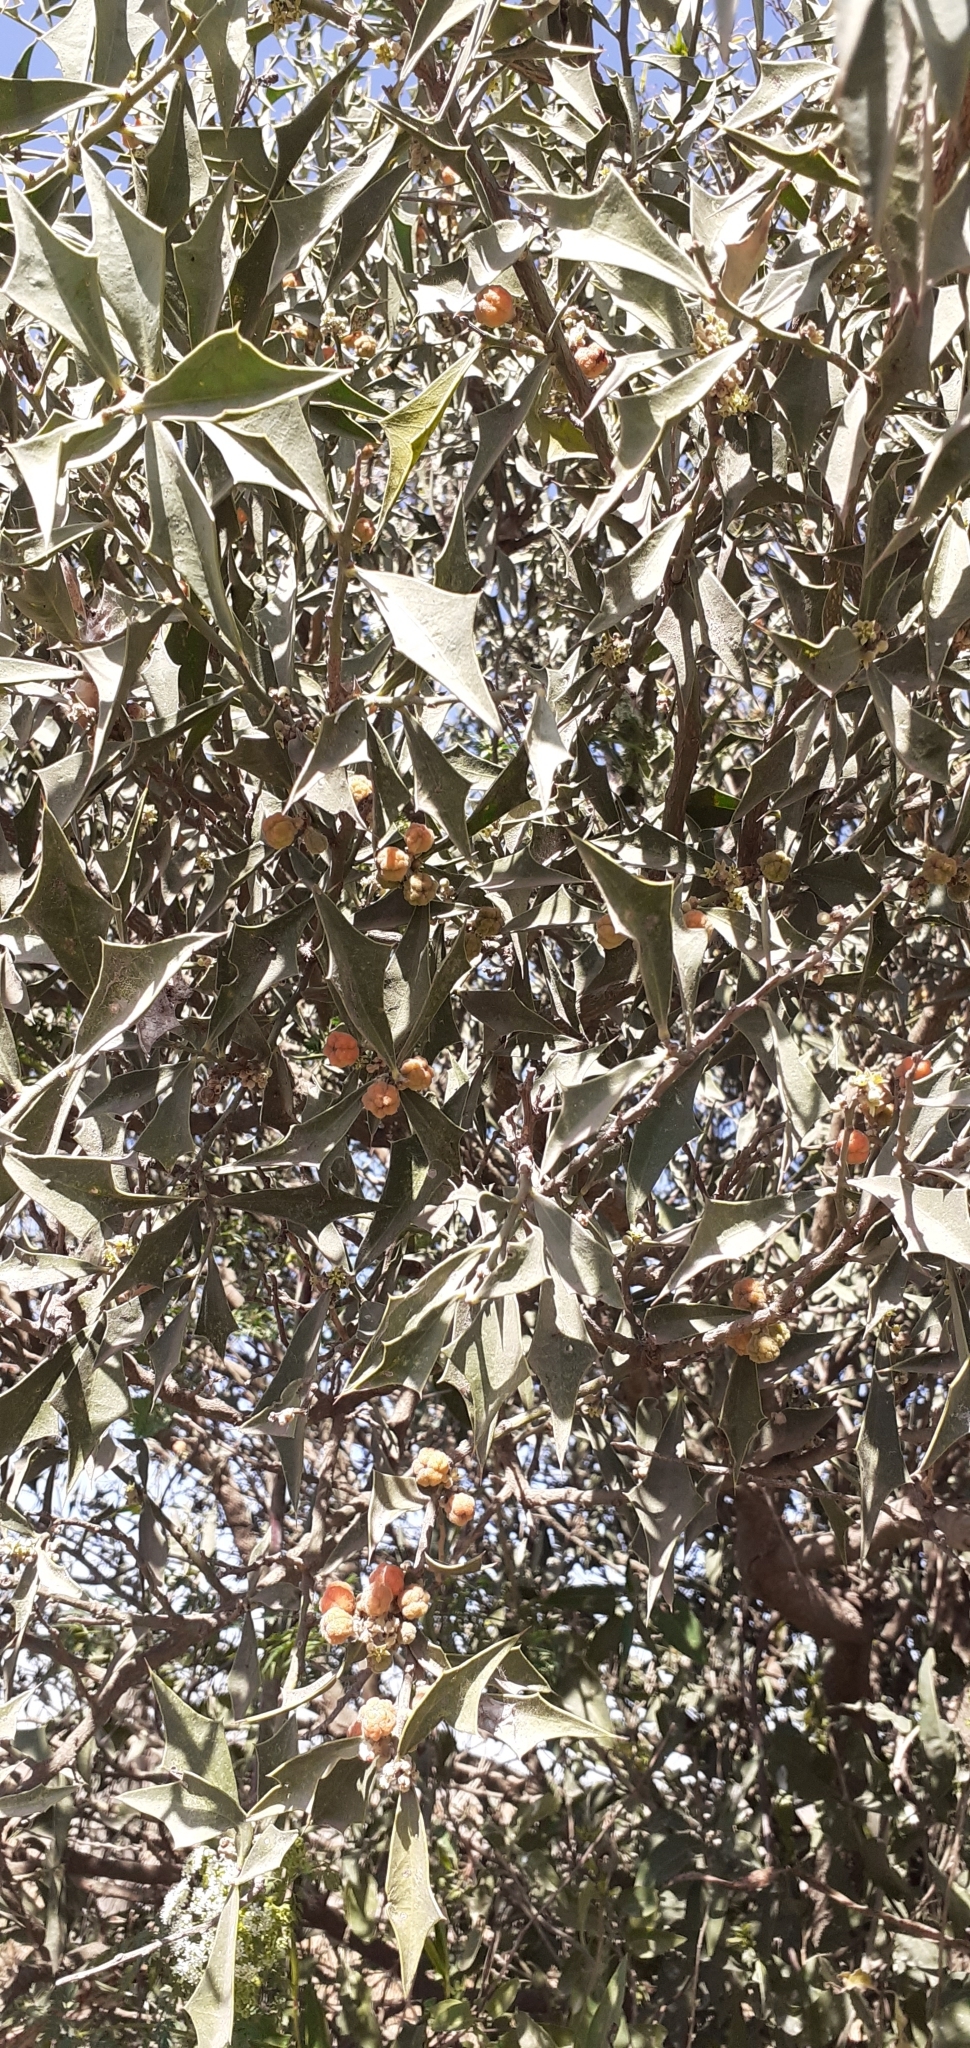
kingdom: Plantae
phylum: Tracheophyta
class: Magnoliopsida
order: Santalales
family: Cervantesiaceae
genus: Jodina
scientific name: Jodina rhombifolia
